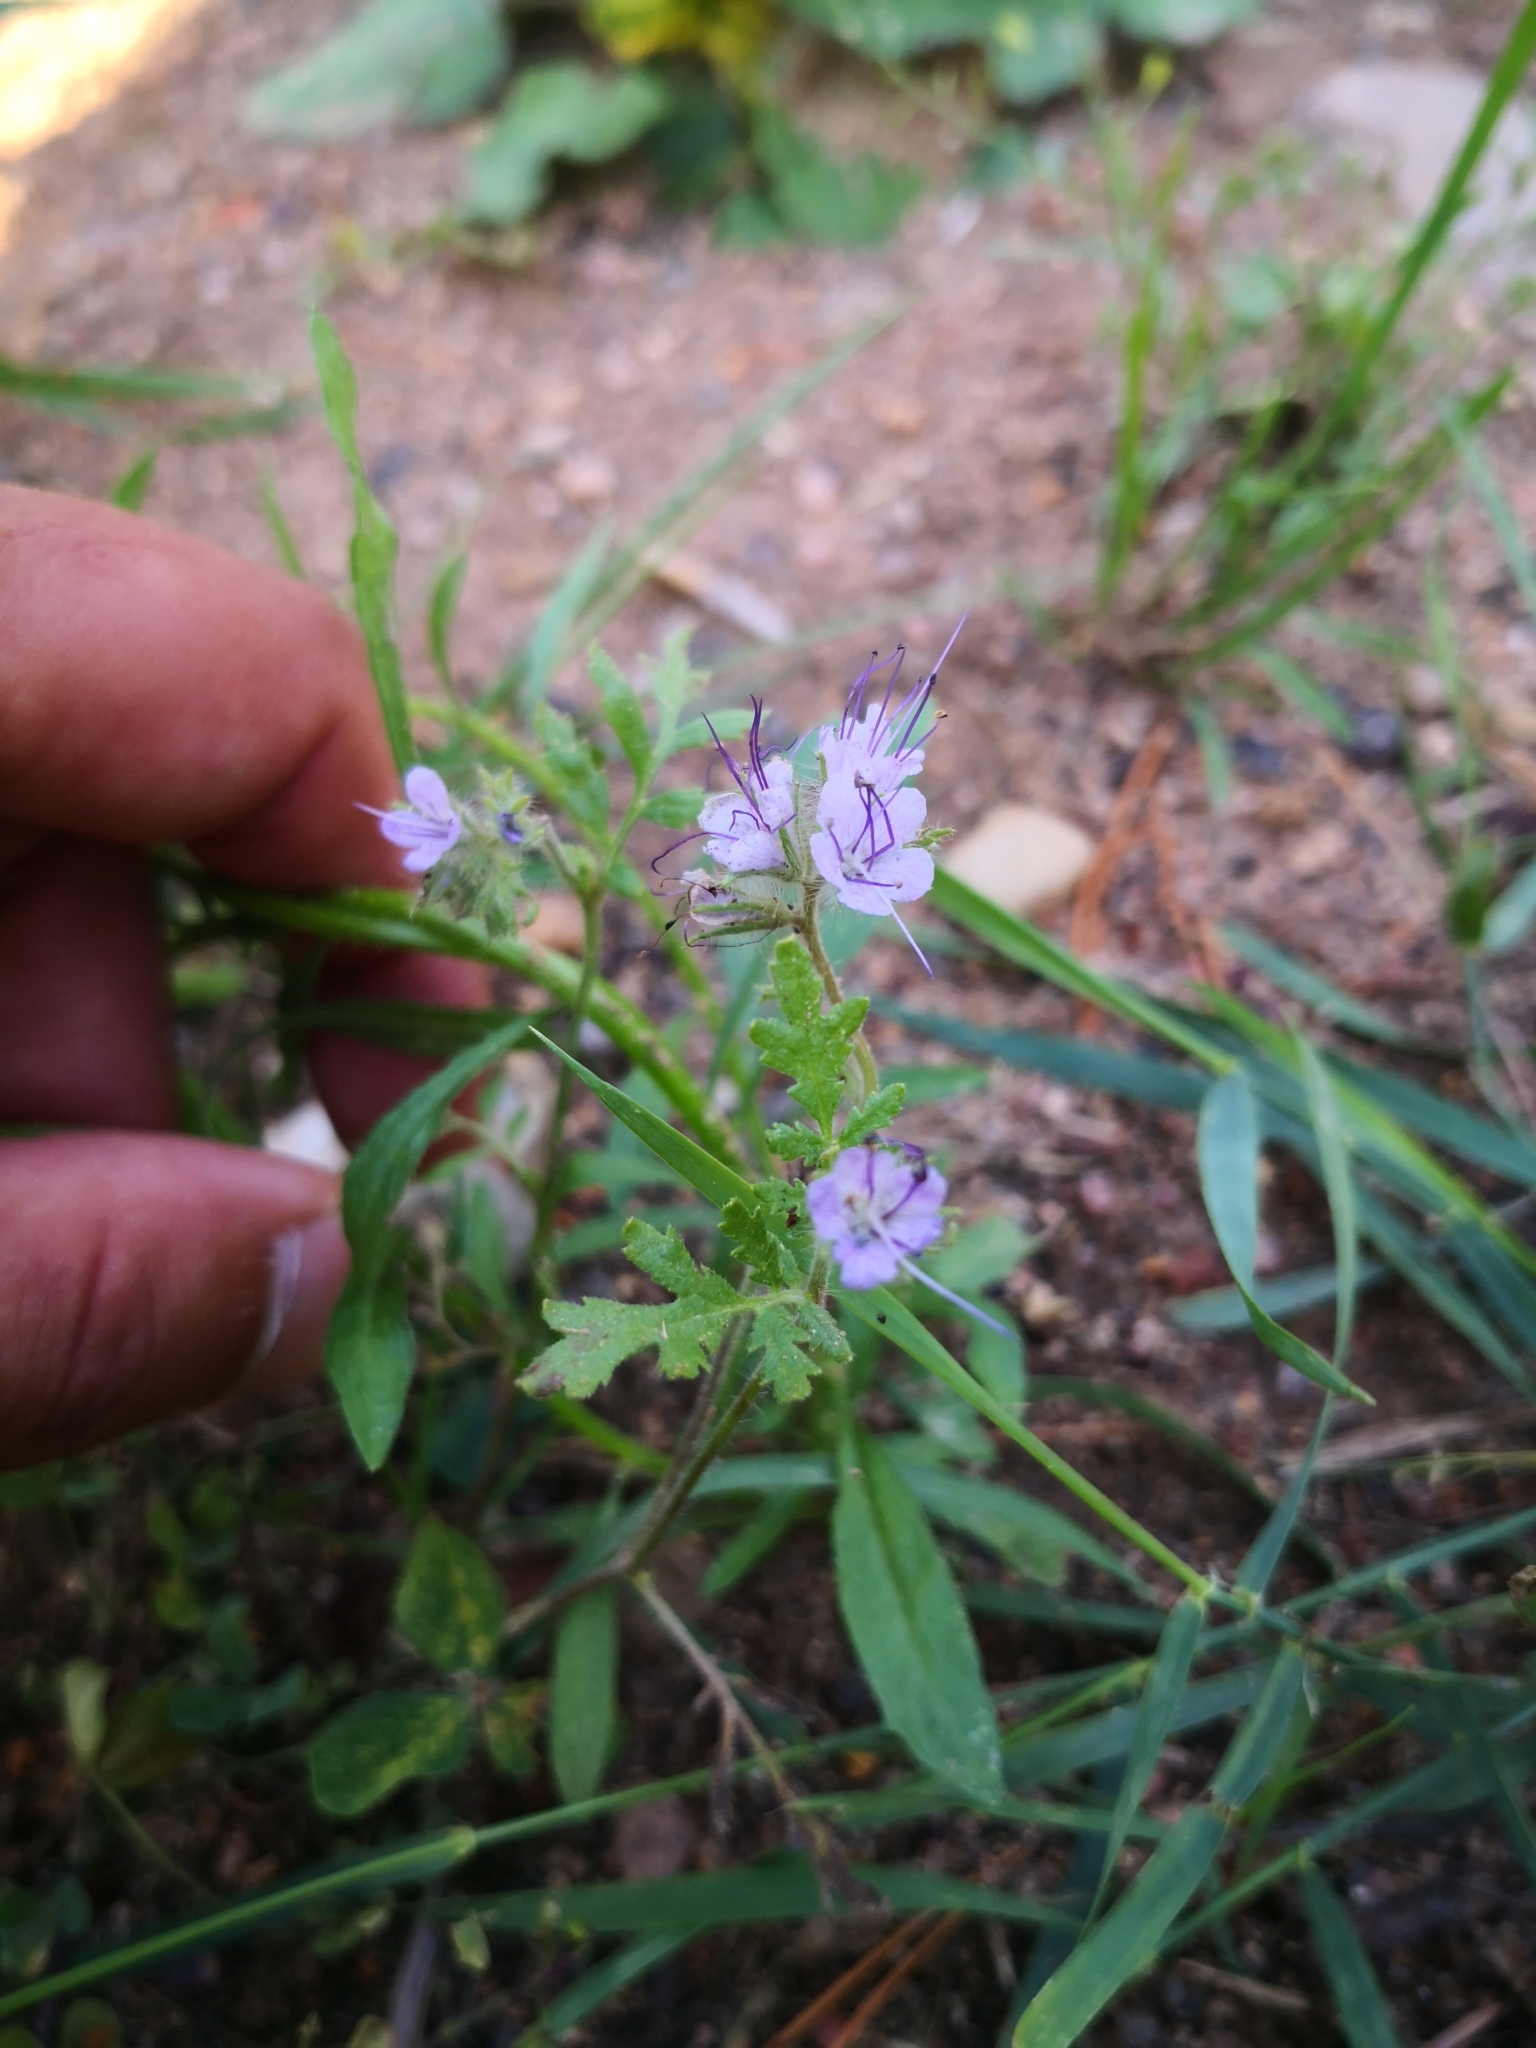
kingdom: Plantae
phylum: Tracheophyta
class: Magnoliopsida
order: Boraginales
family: Hydrophyllaceae
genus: Phacelia
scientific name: Phacelia tanacetifolia
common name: Phacelia
